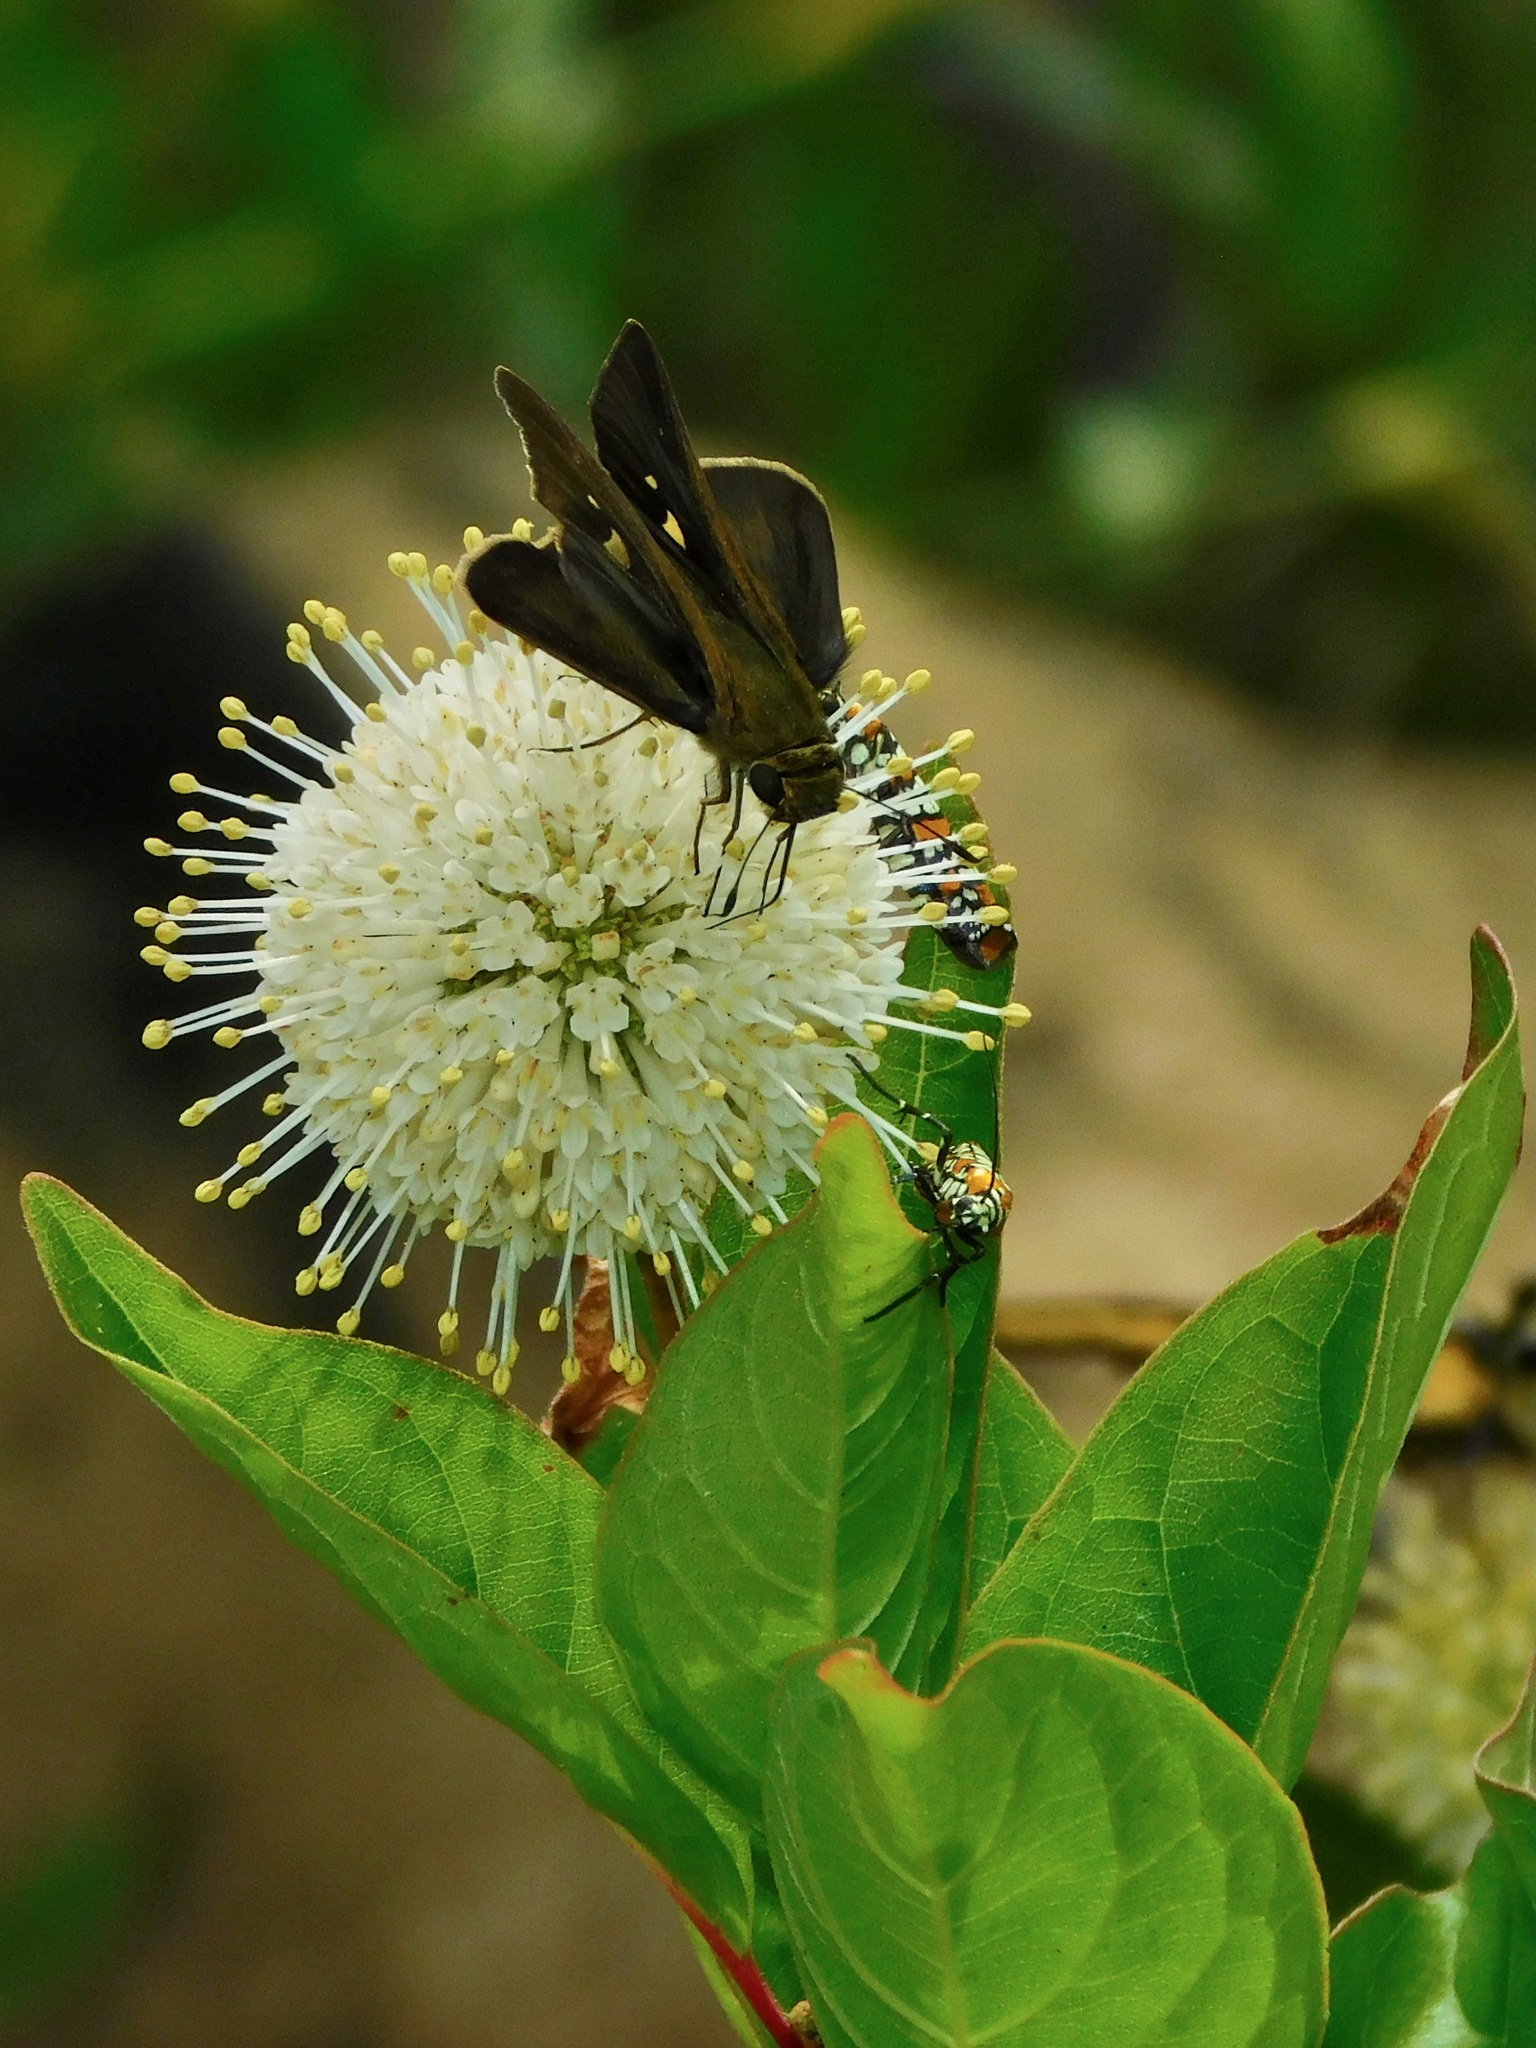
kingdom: Animalia
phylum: Arthropoda
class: Insecta
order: Lepidoptera
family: Hesperiidae
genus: Panoquina
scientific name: Panoquina ocola
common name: Ocola skipper
